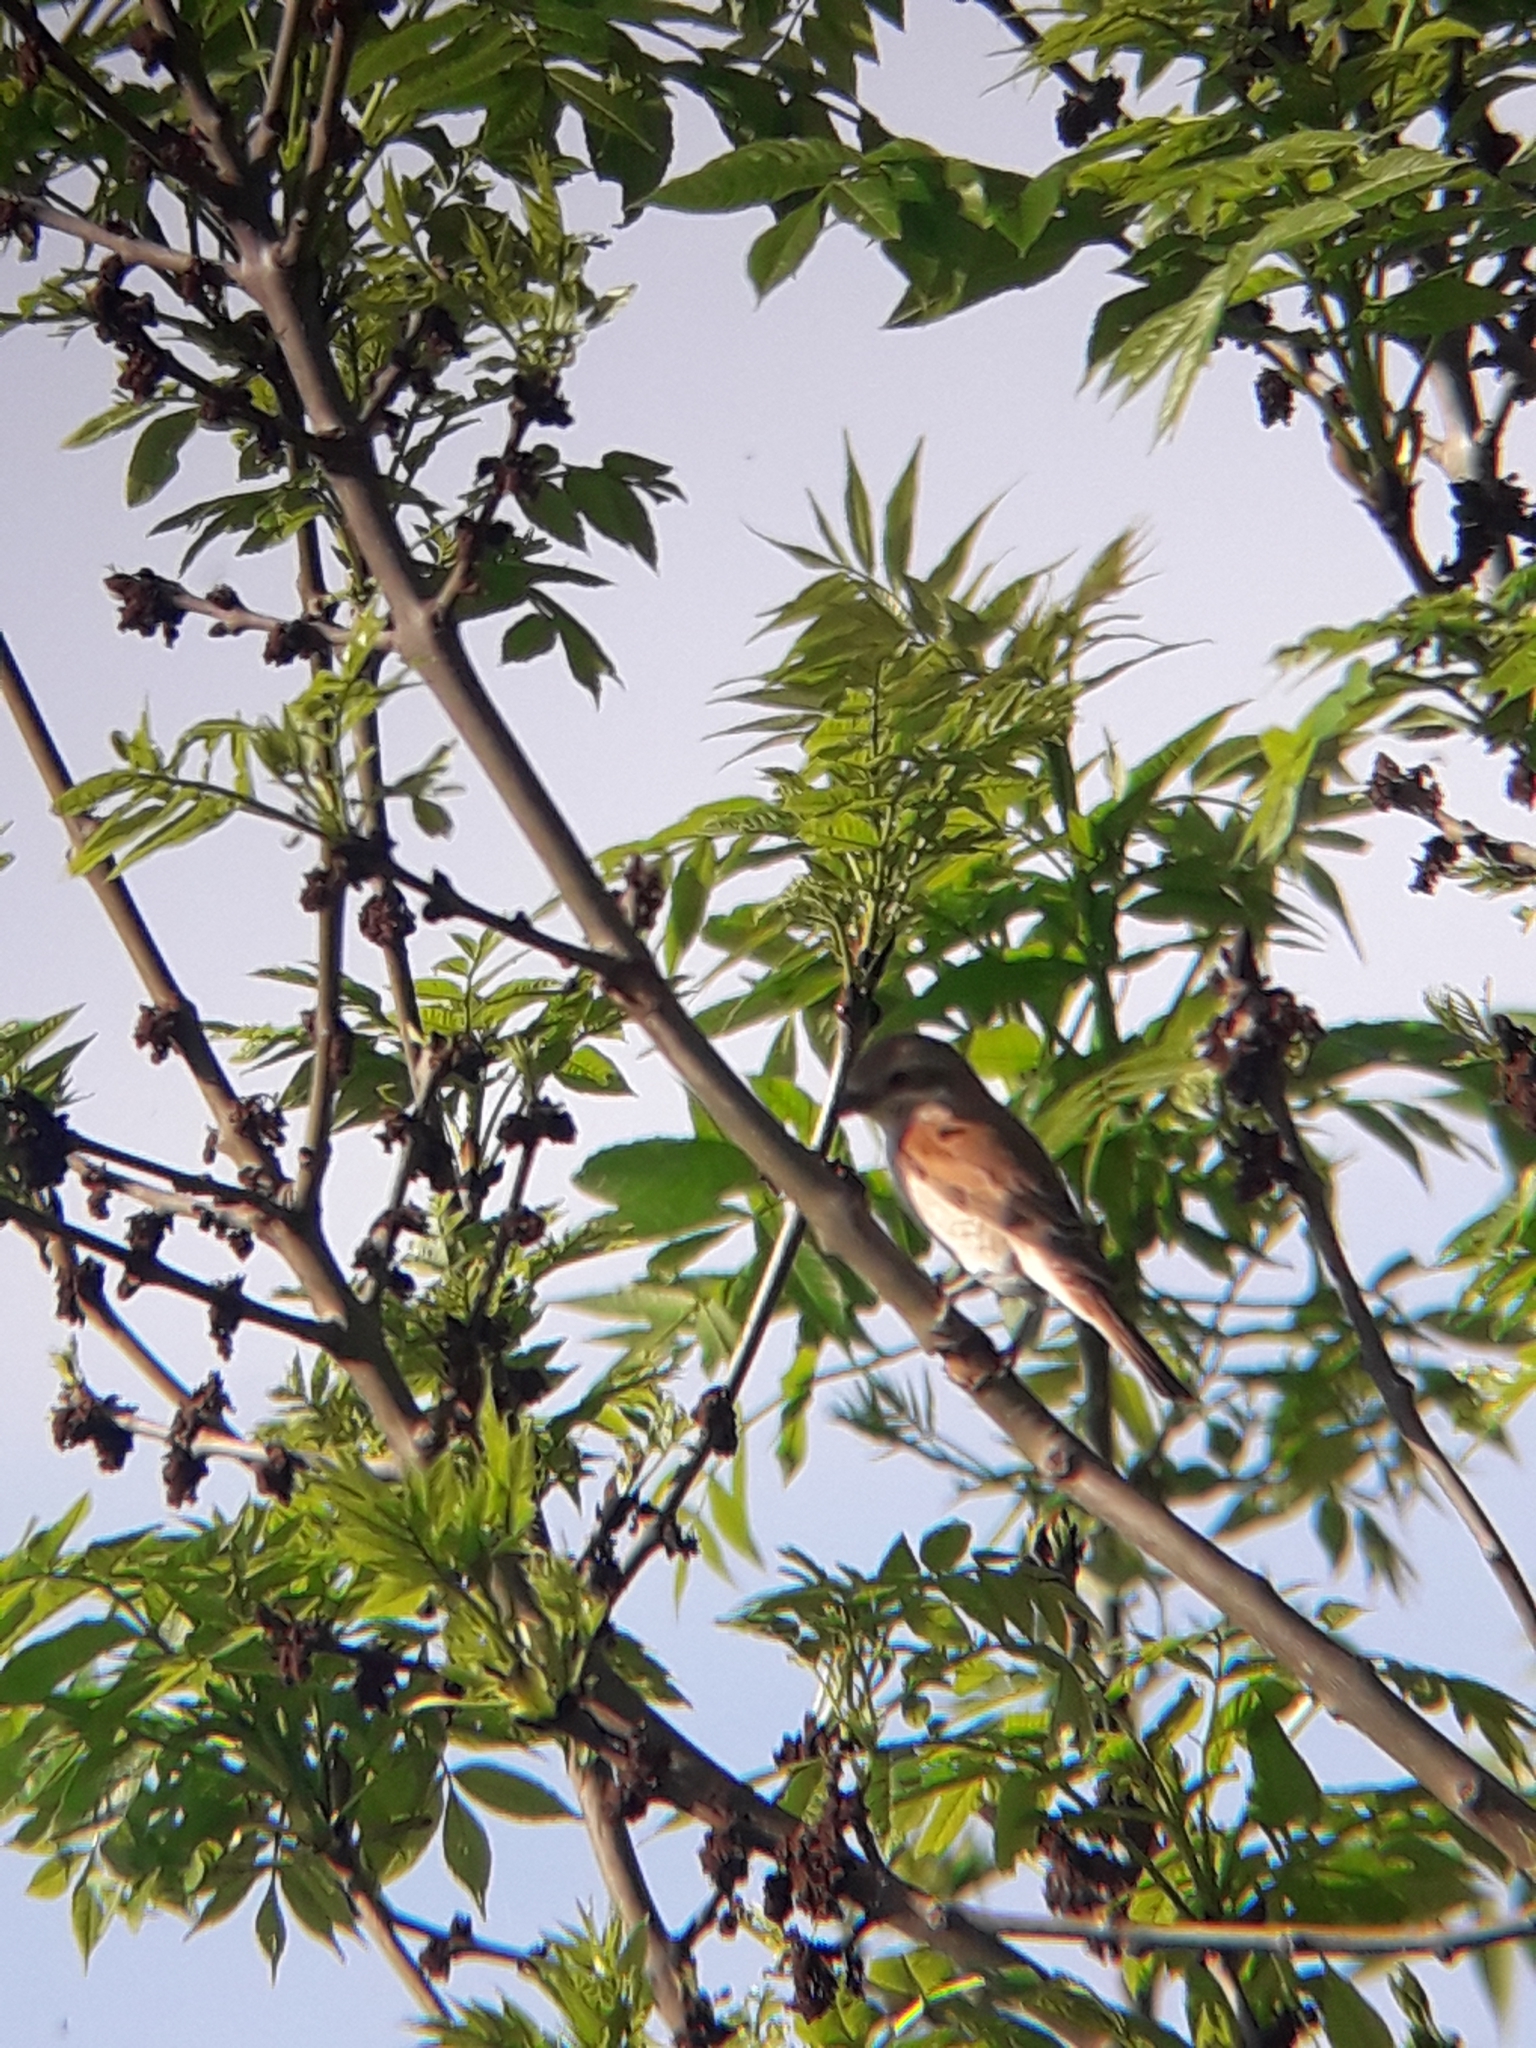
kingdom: Animalia
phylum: Chordata
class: Aves
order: Passeriformes
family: Laniidae
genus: Lanius
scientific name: Lanius collurio
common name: Red-backed shrike
